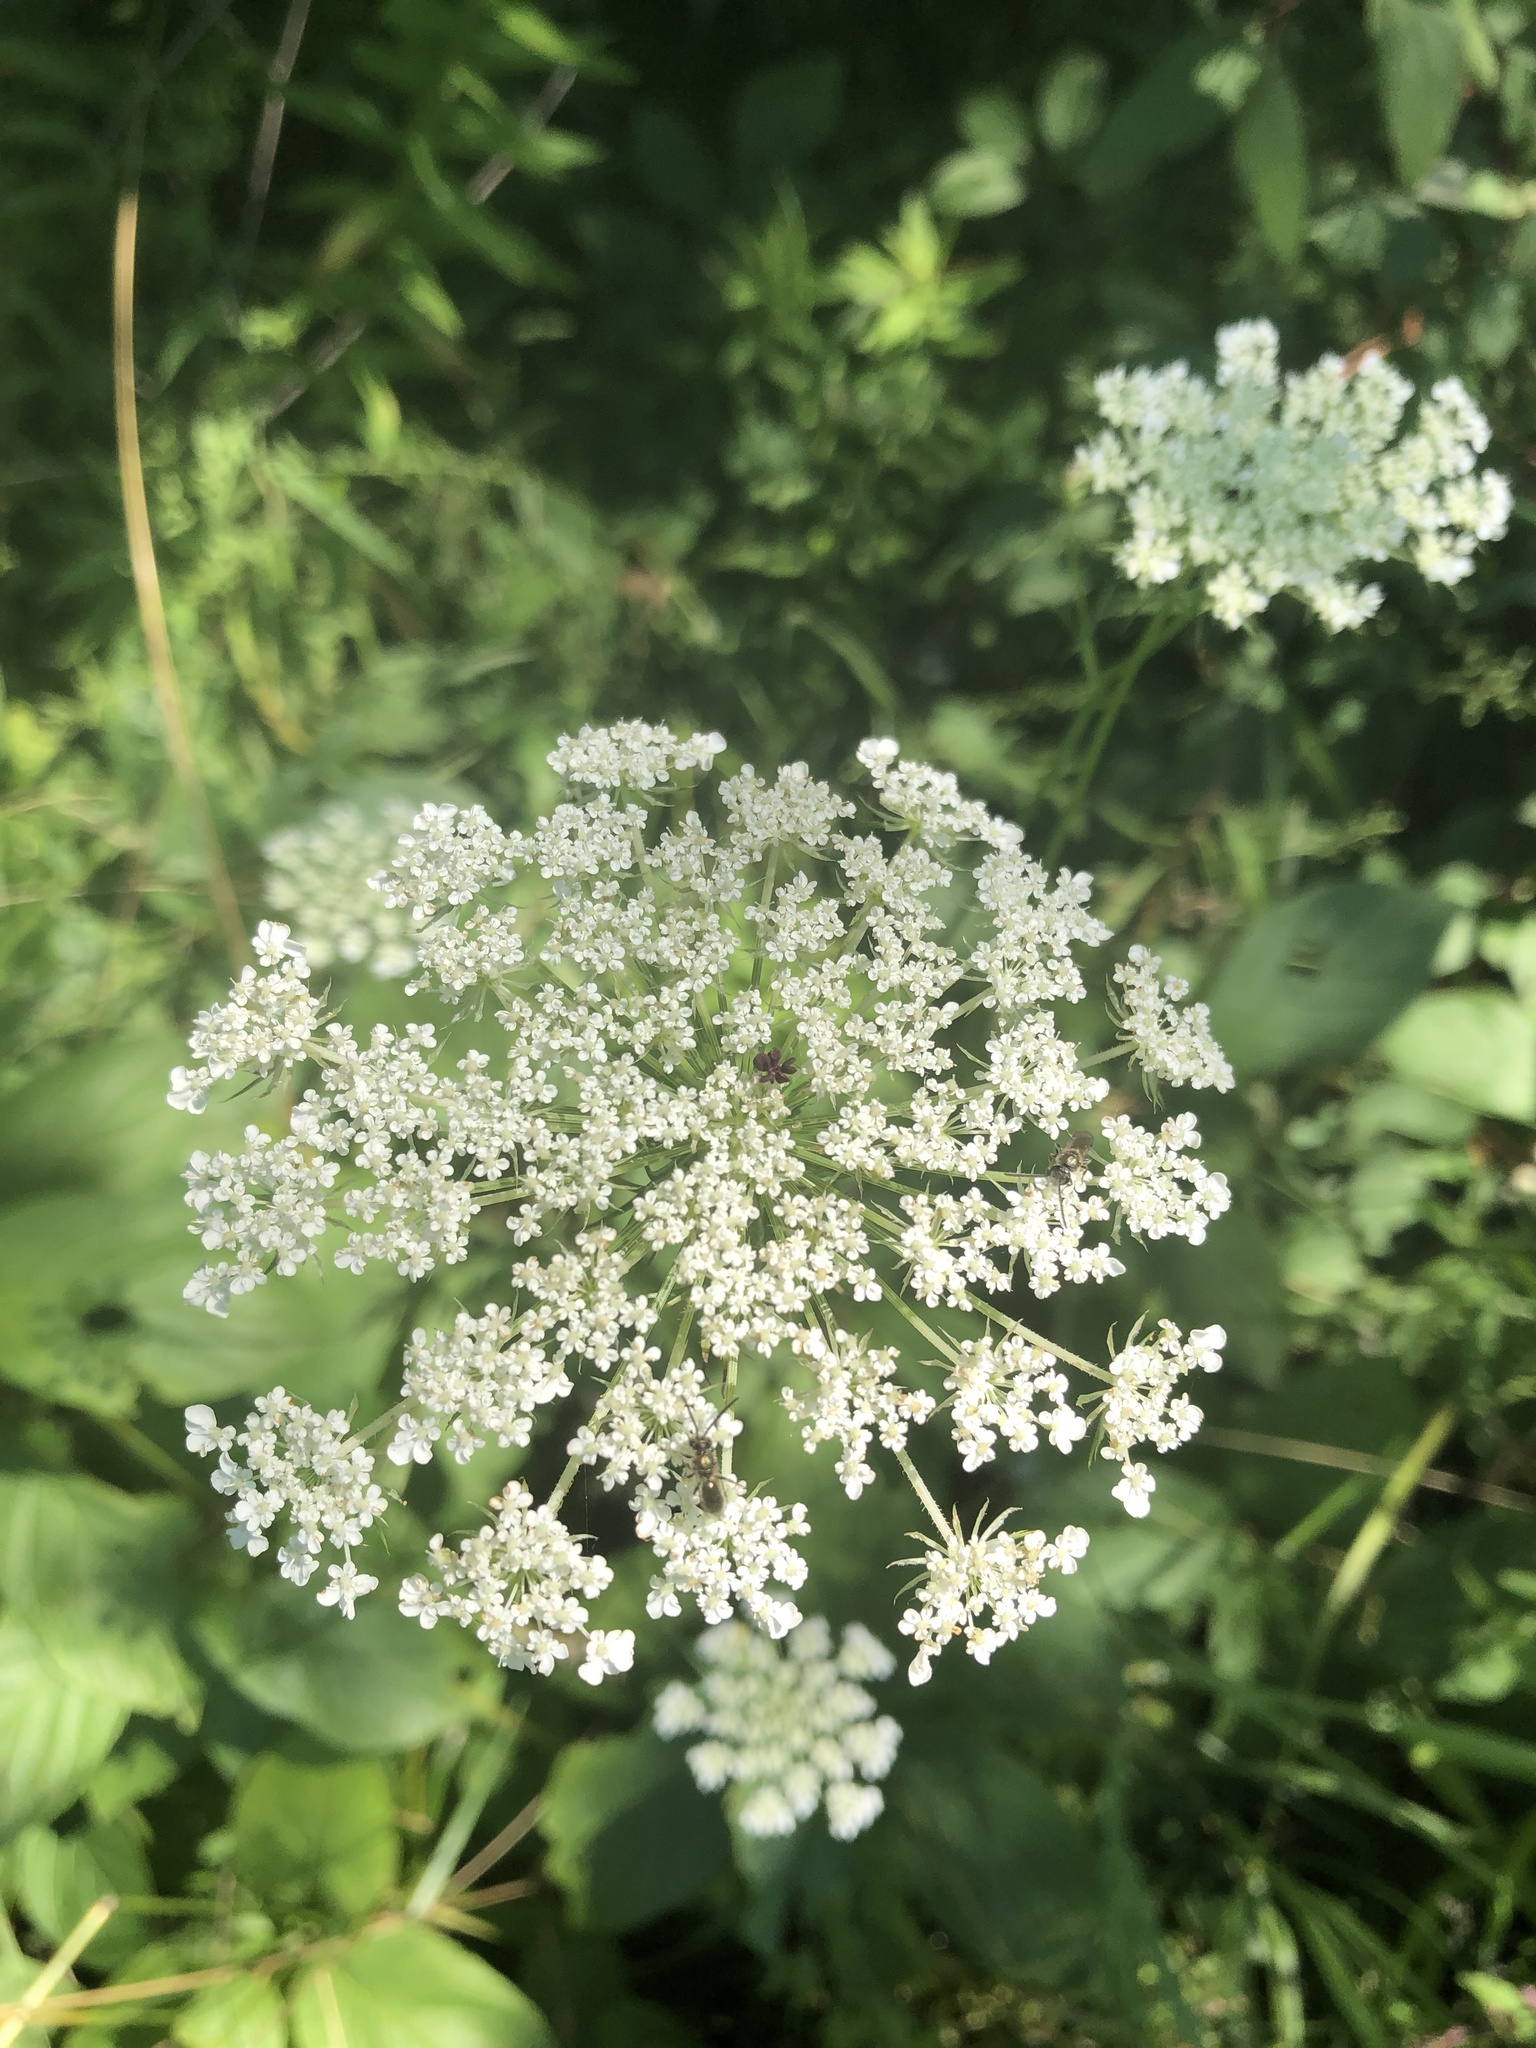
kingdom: Plantae
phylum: Tracheophyta
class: Magnoliopsida
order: Apiales
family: Apiaceae
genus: Daucus
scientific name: Daucus carota
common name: Wild carrot
